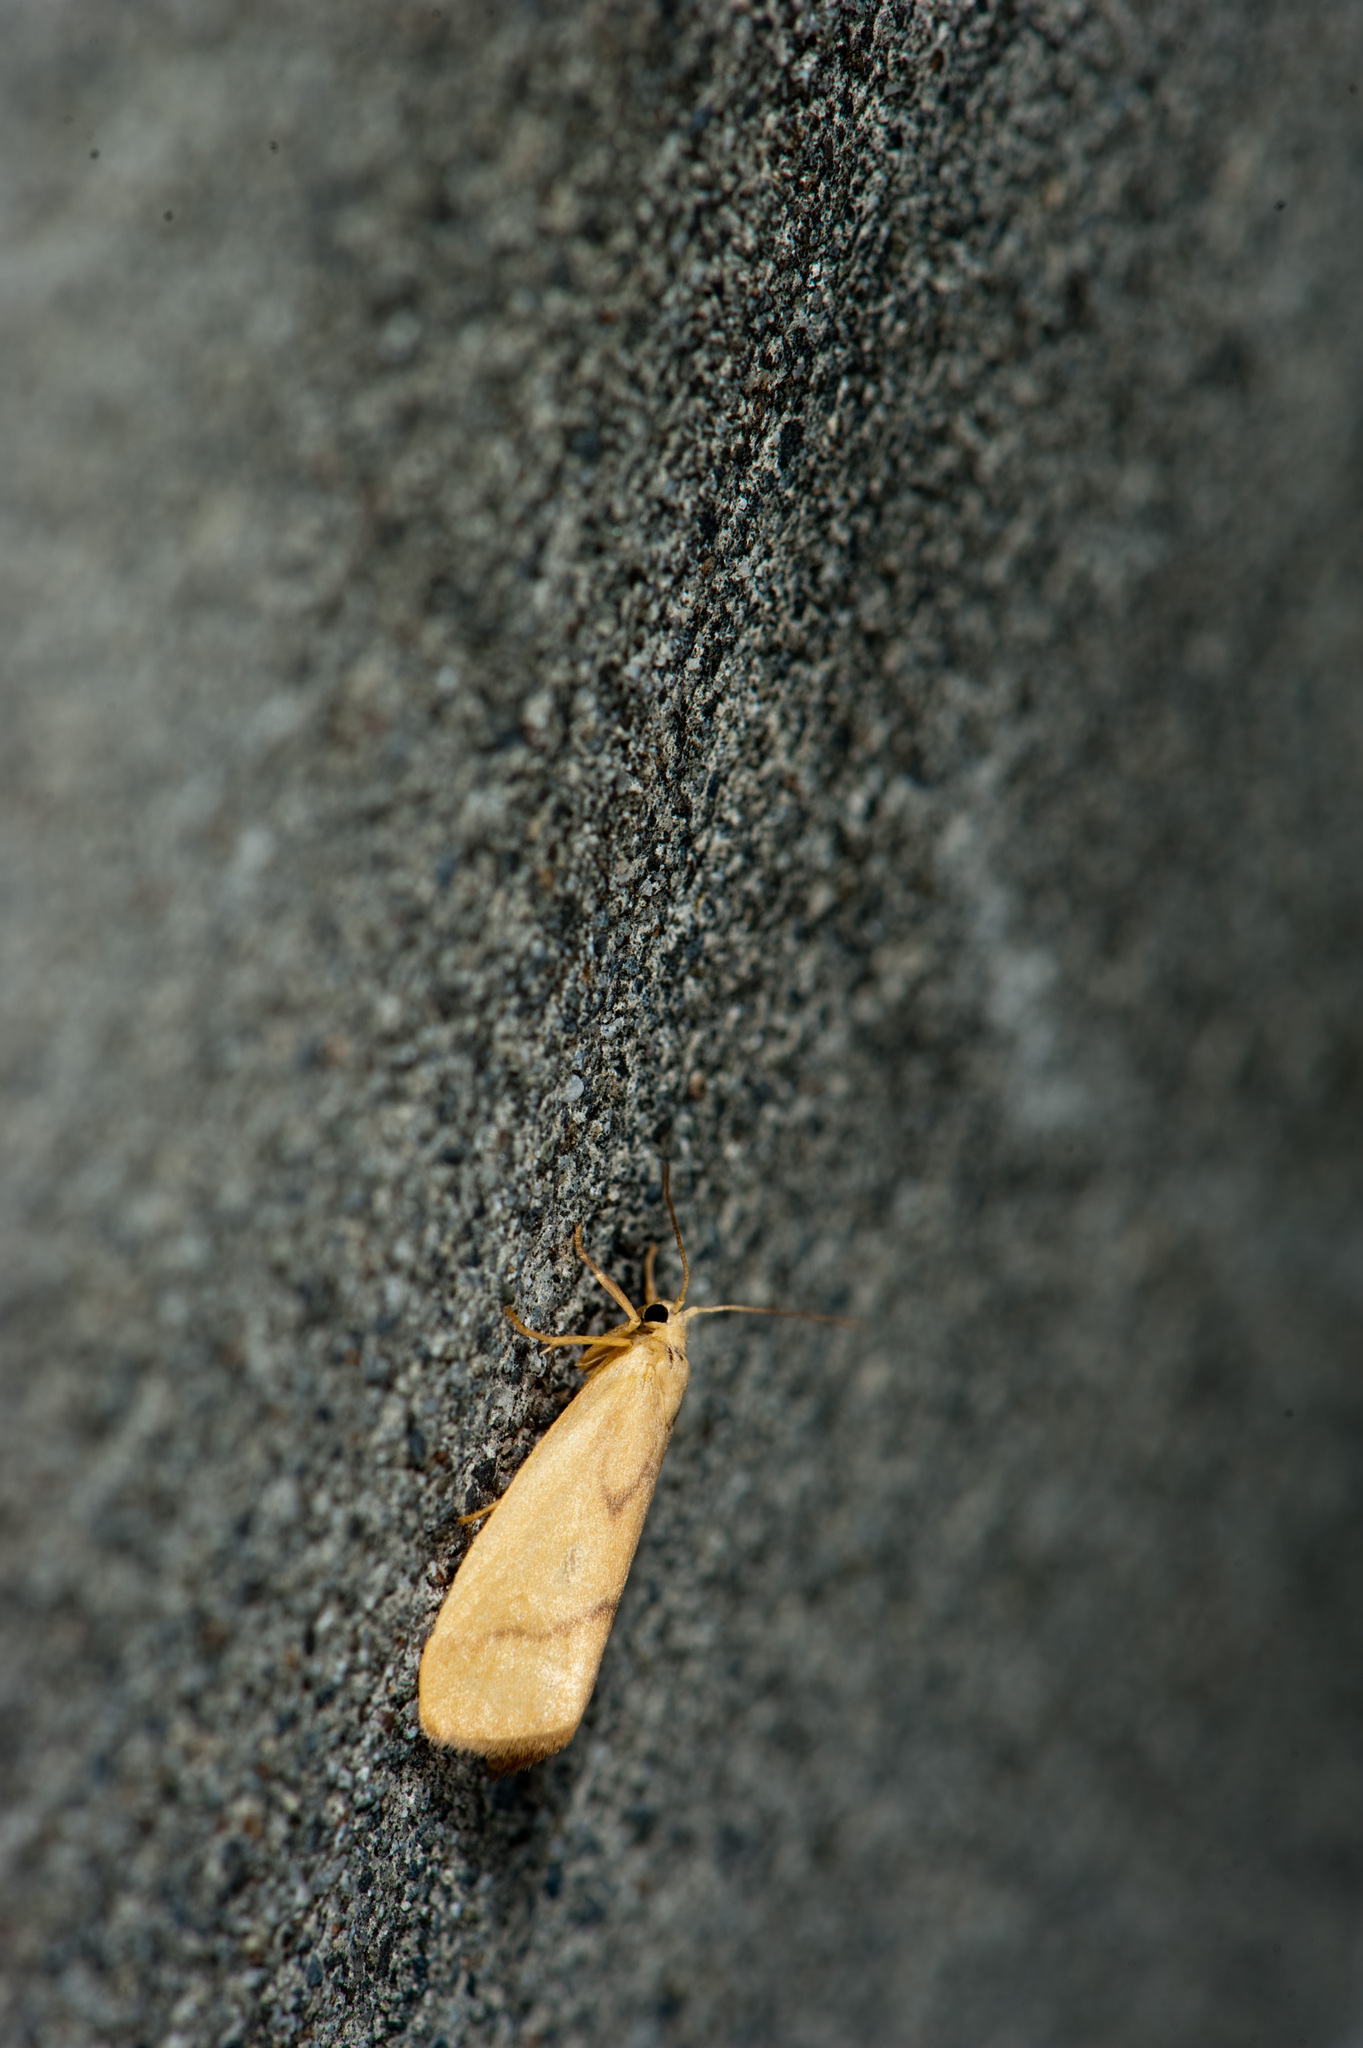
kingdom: Animalia
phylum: Arthropoda
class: Insecta
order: Lepidoptera
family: Erebidae
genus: Notata
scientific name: Notata parva
